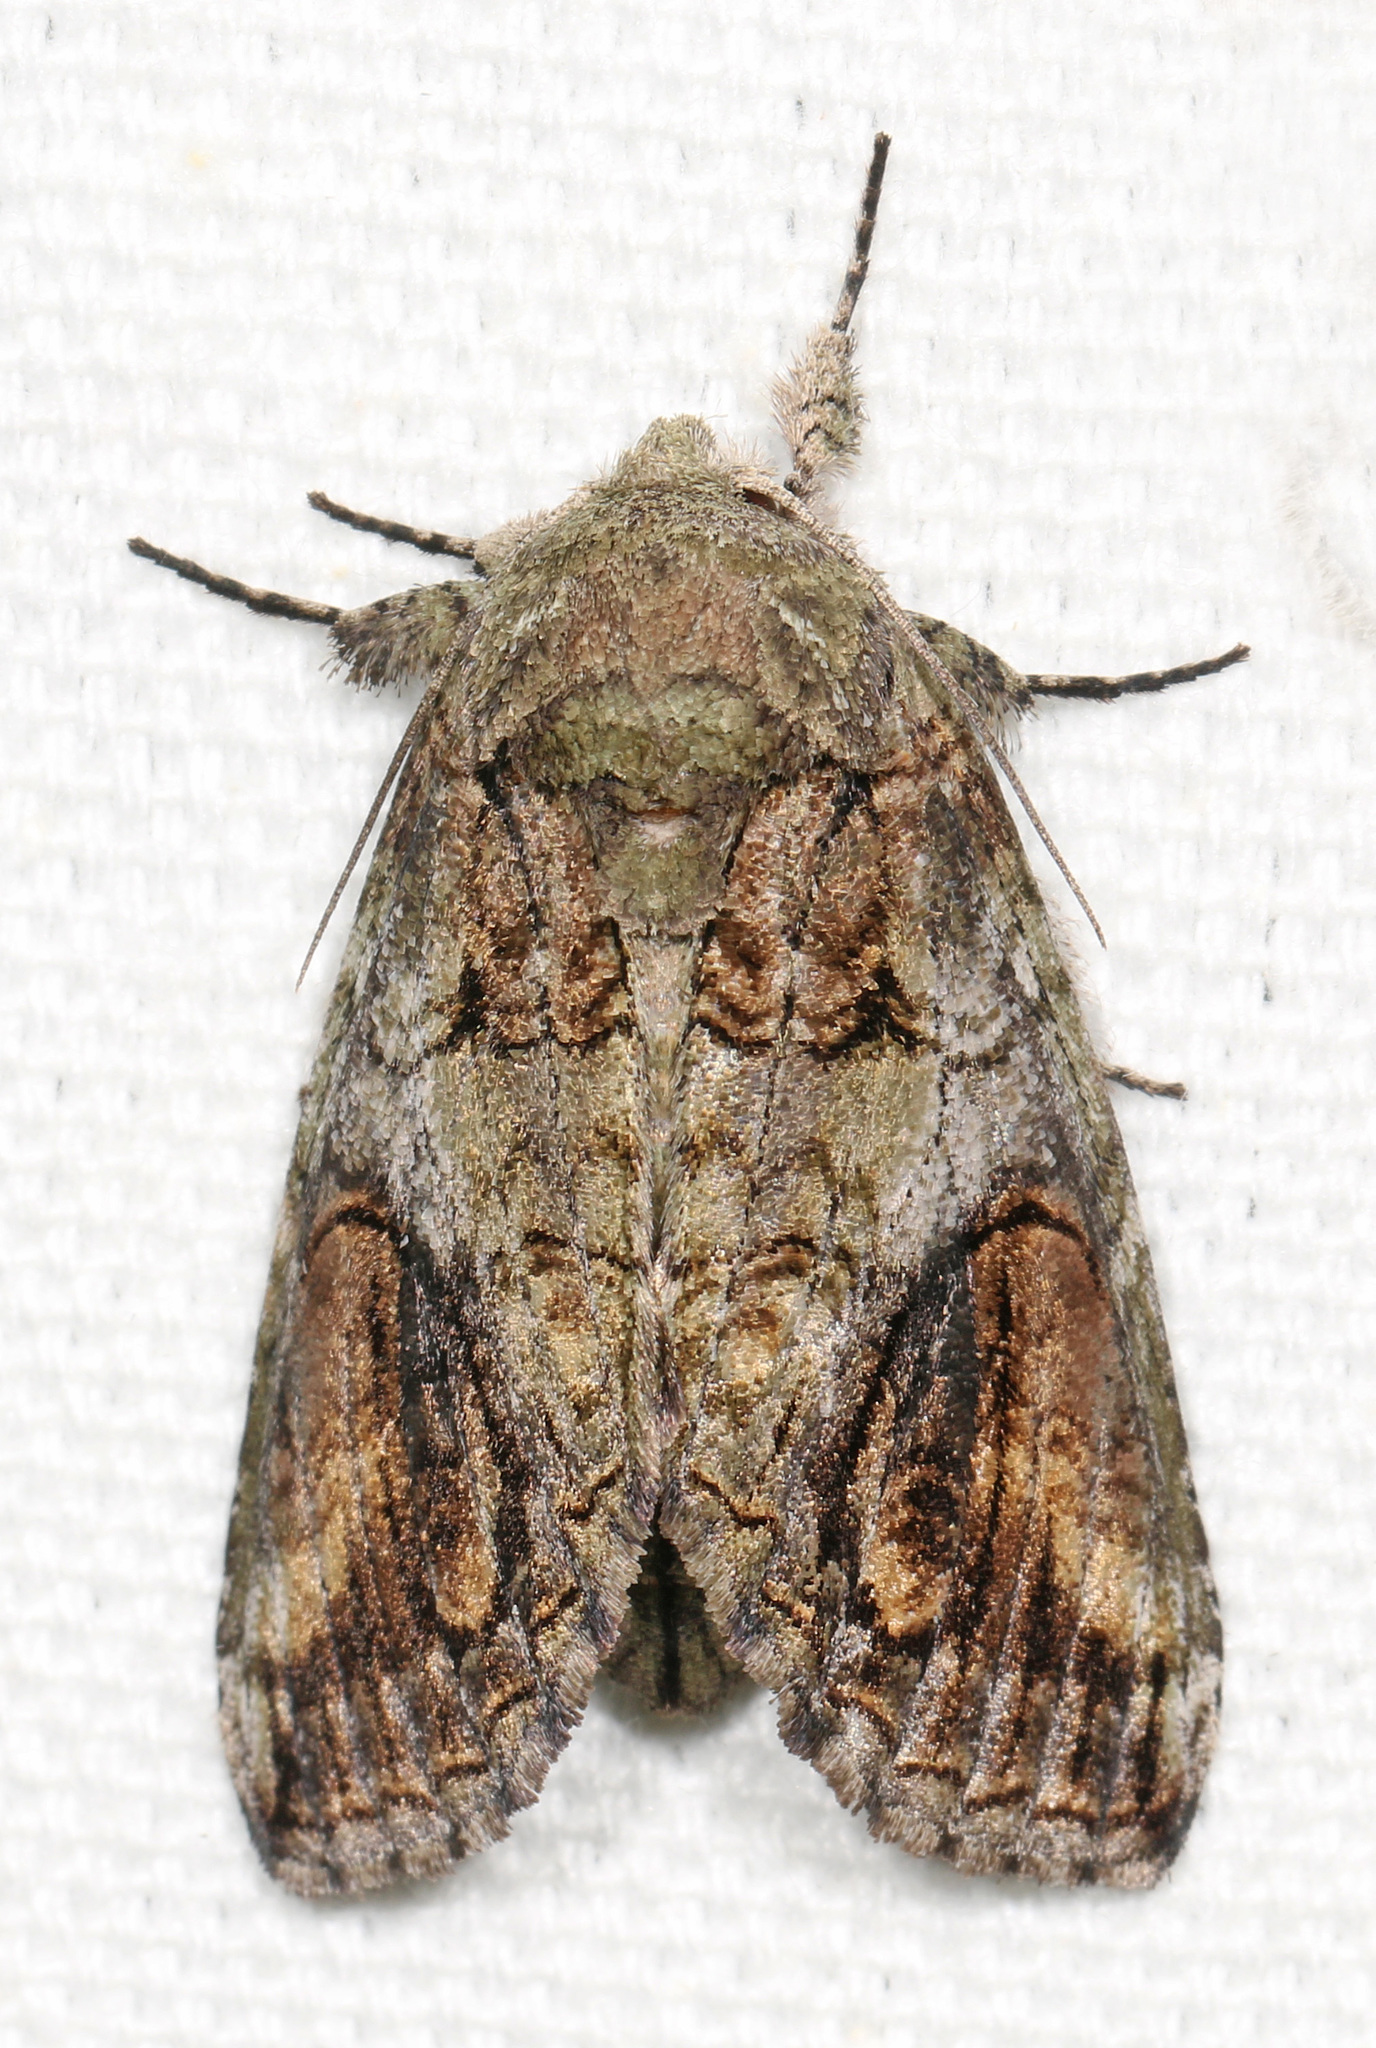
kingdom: Animalia
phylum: Arthropoda
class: Insecta
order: Lepidoptera
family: Notodontidae
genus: Heterocampa
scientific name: Heterocampa obliqua
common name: Oblique heterocampa
